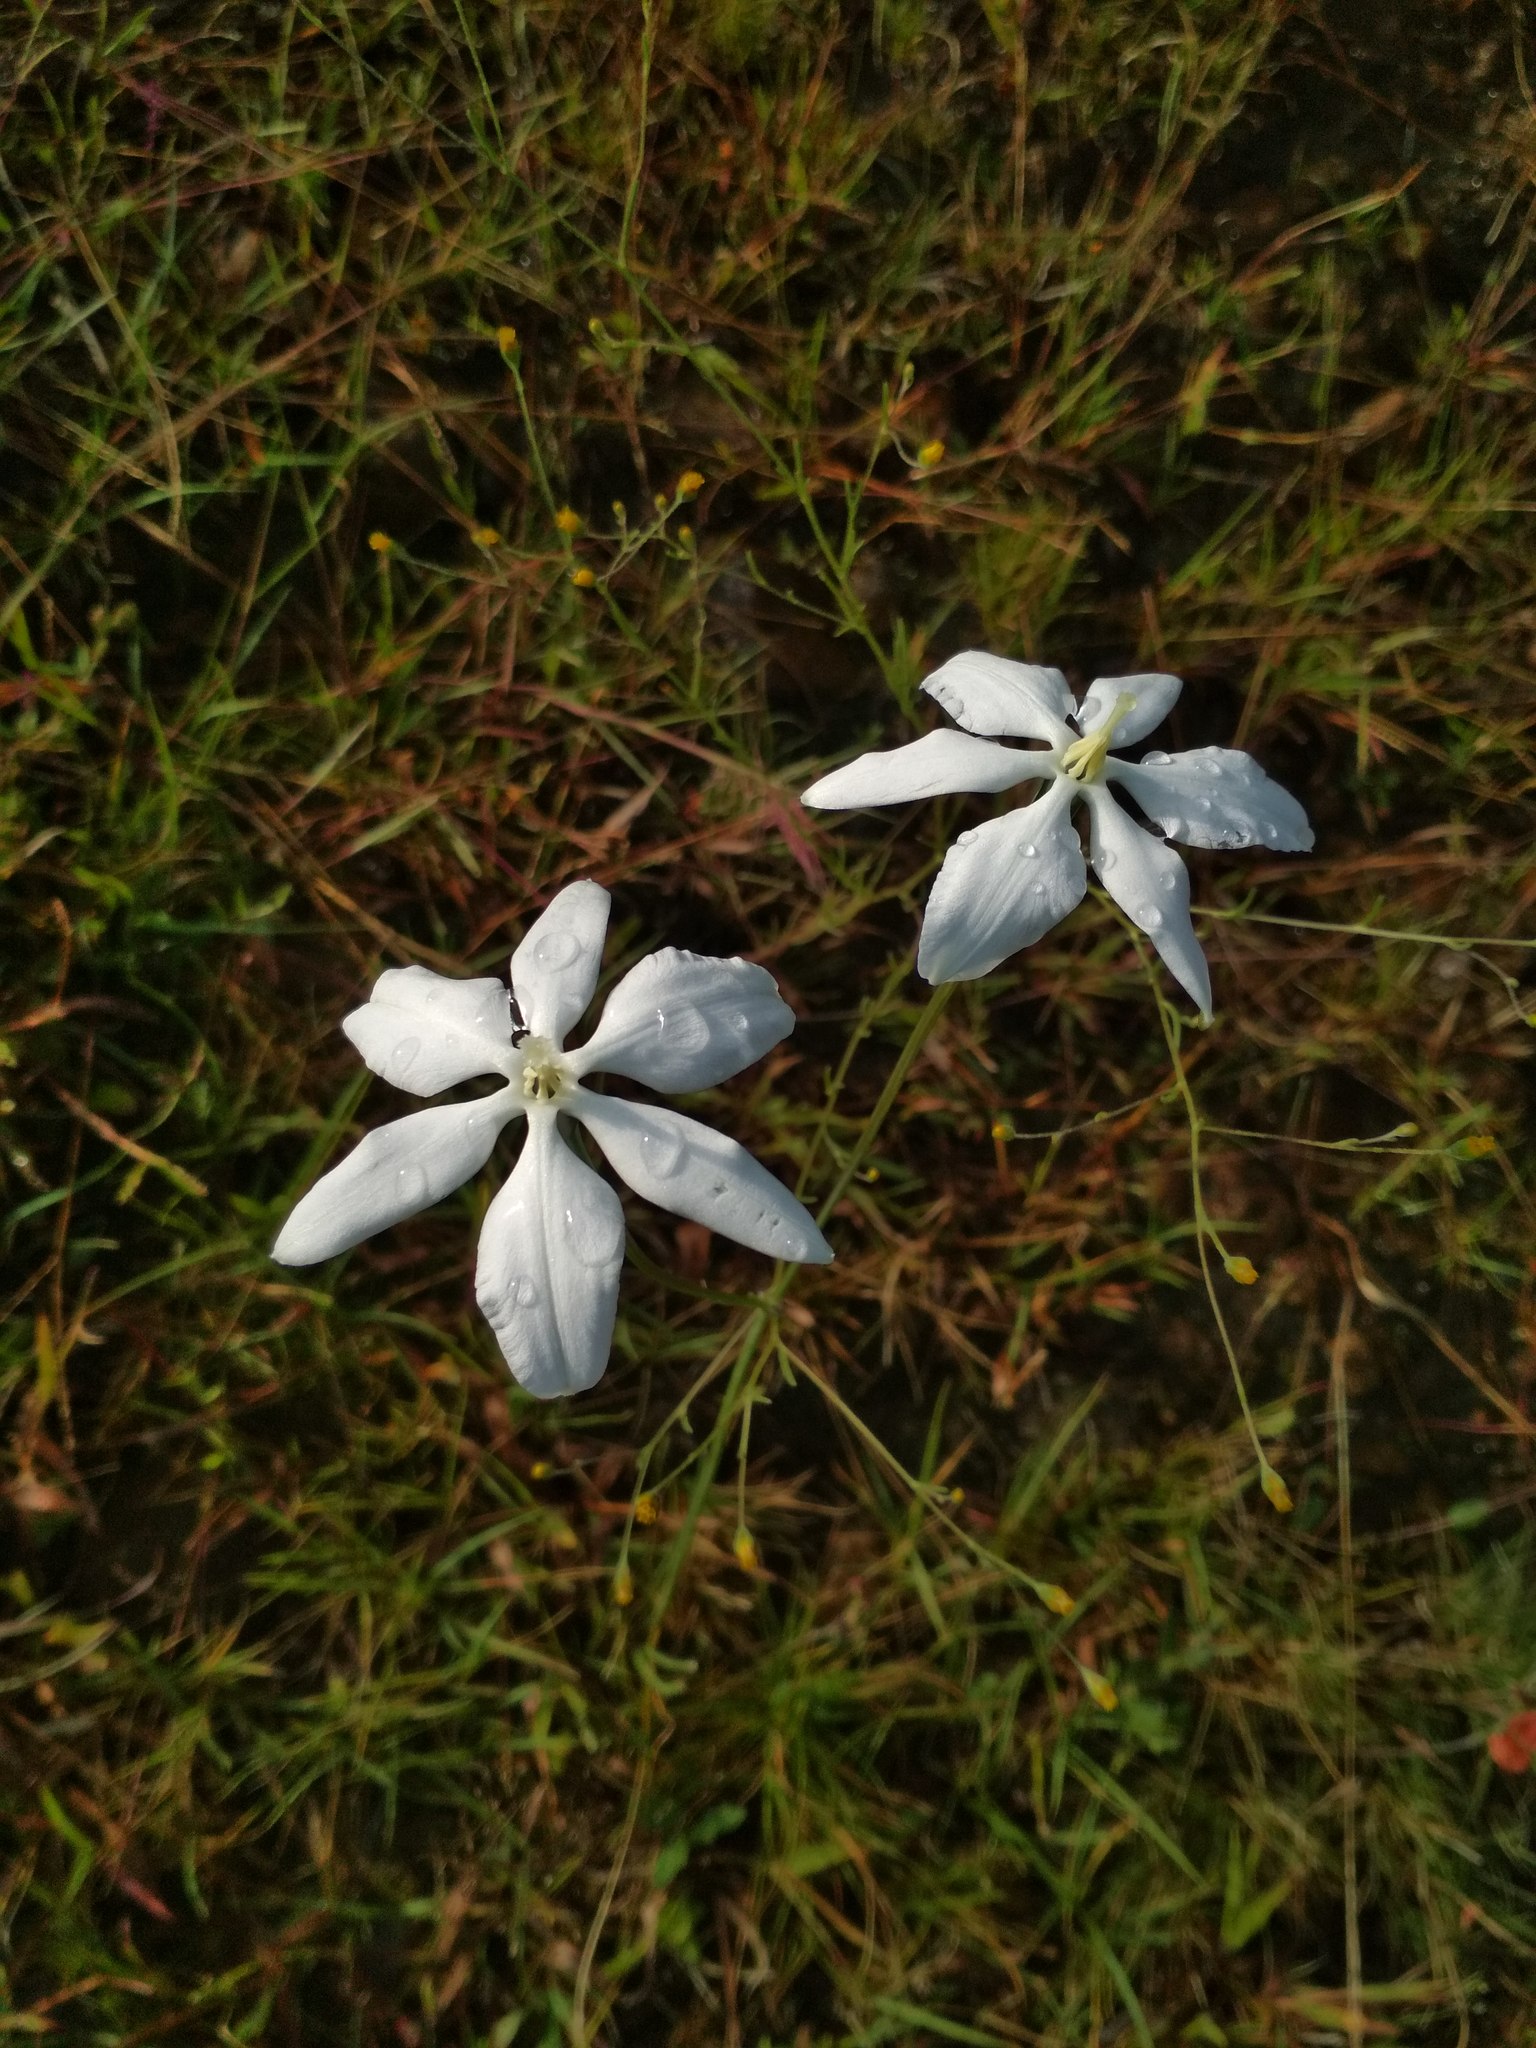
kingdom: Plantae
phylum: Tracheophyta
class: Liliopsida
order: Asparagales
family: Asparagaceae
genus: Milla
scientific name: Milla biflora
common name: Mexican-star
